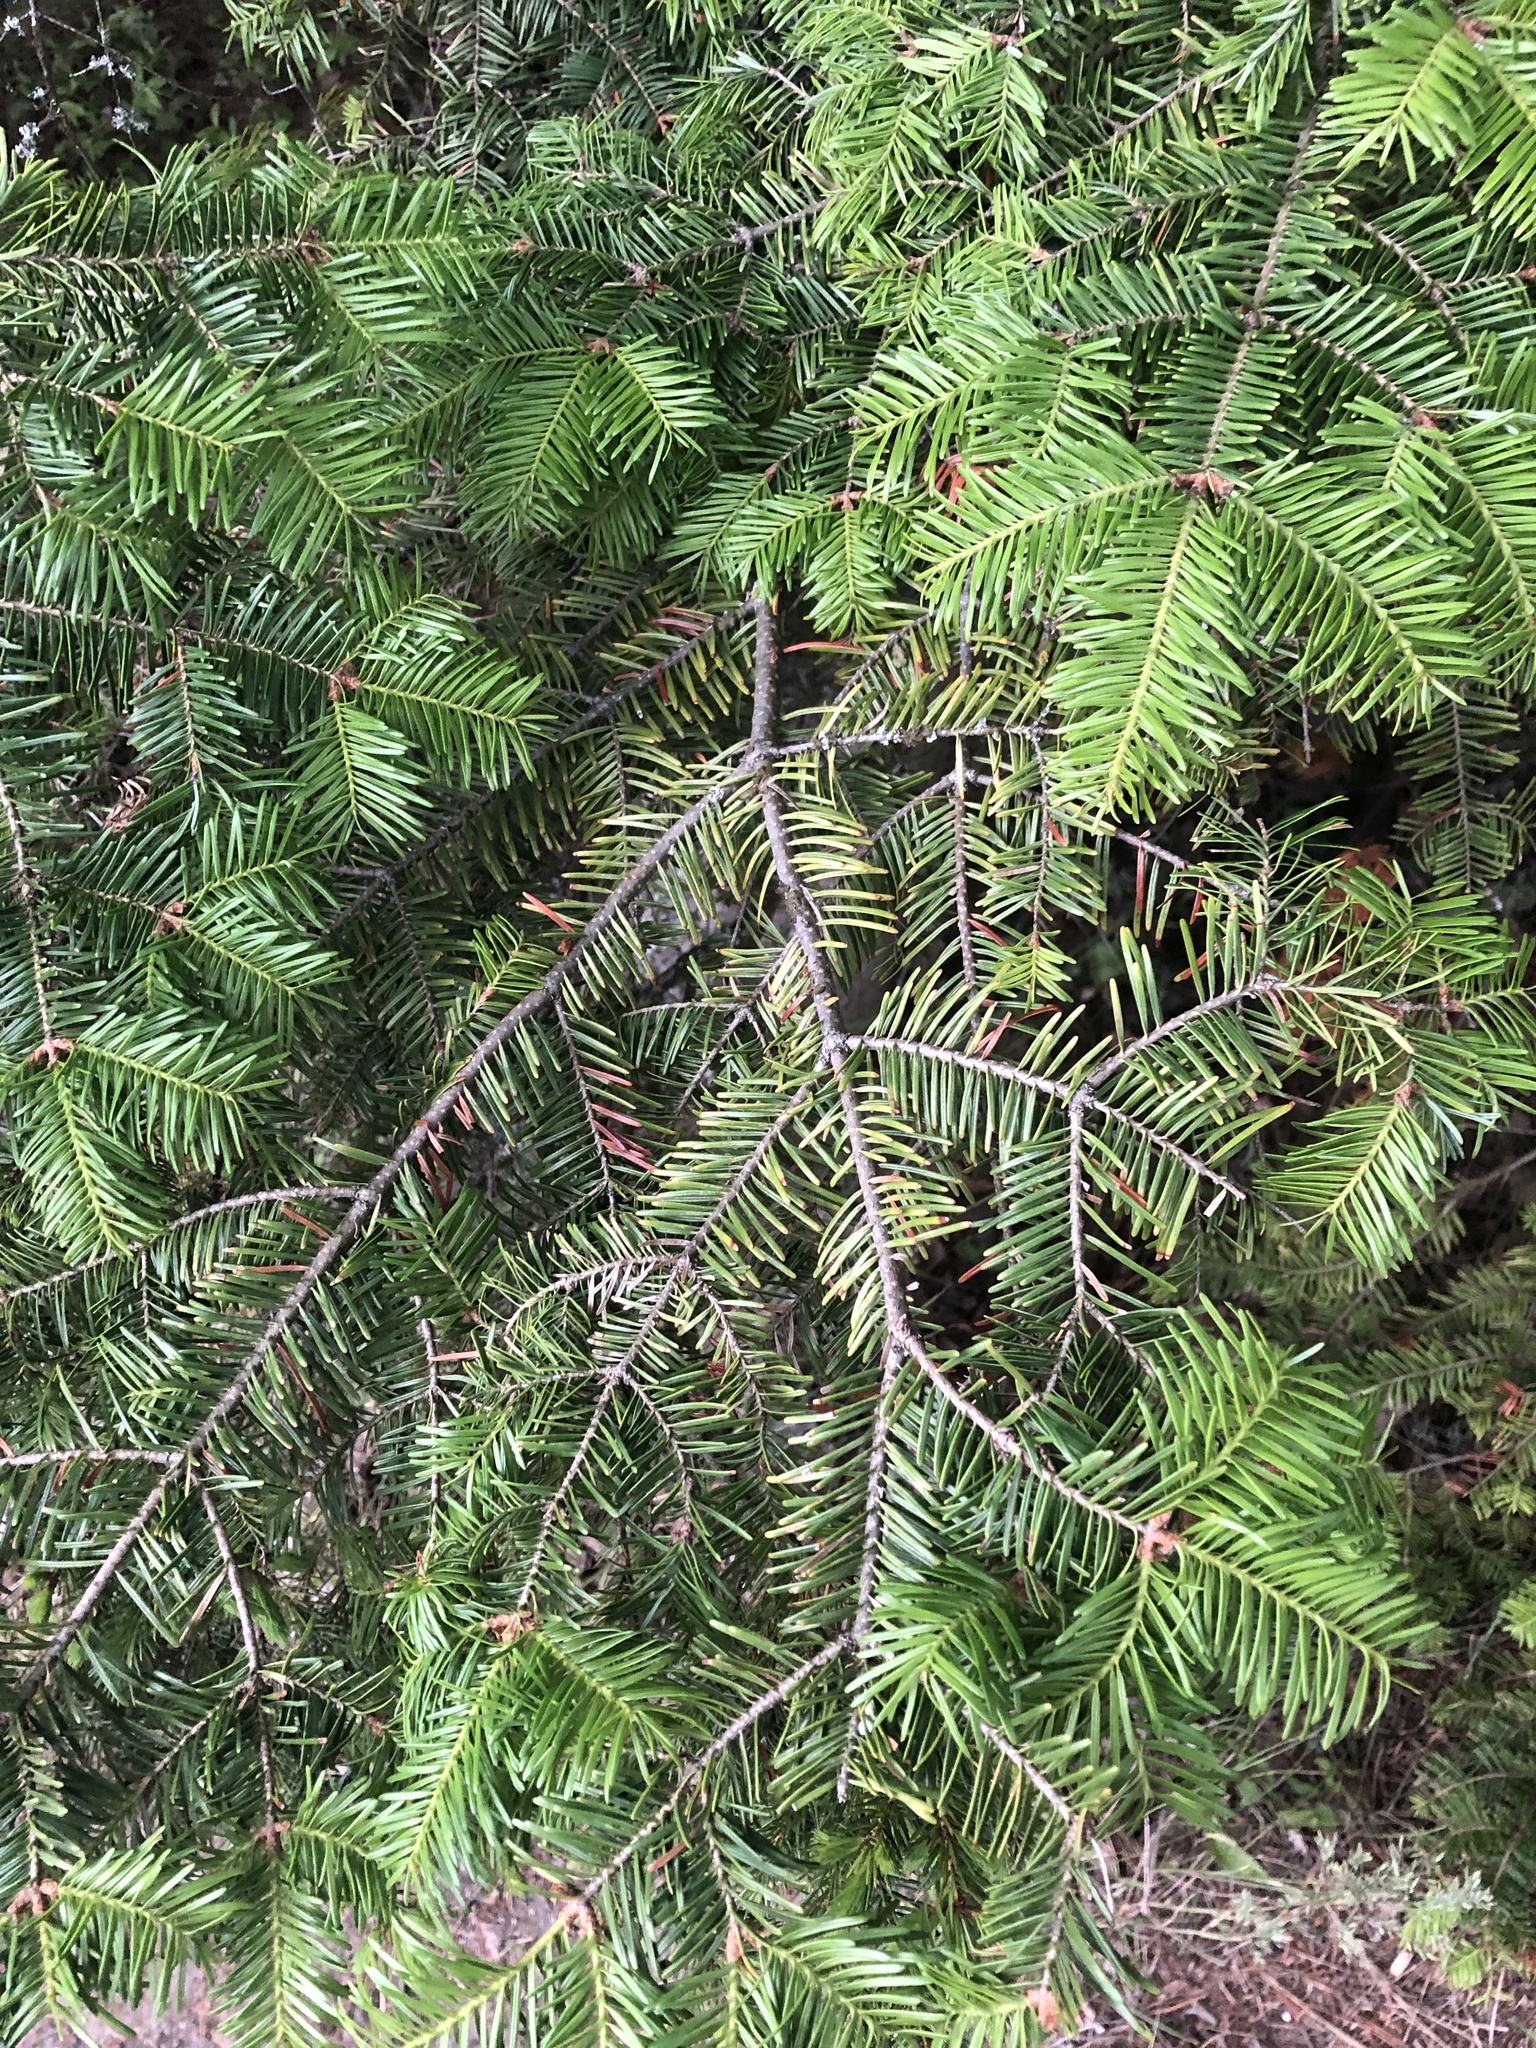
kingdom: Plantae
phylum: Tracheophyta
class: Pinopsida
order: Pinales
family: Pinaceae
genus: Abies
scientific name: Abies balsamea
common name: Balsam fir
